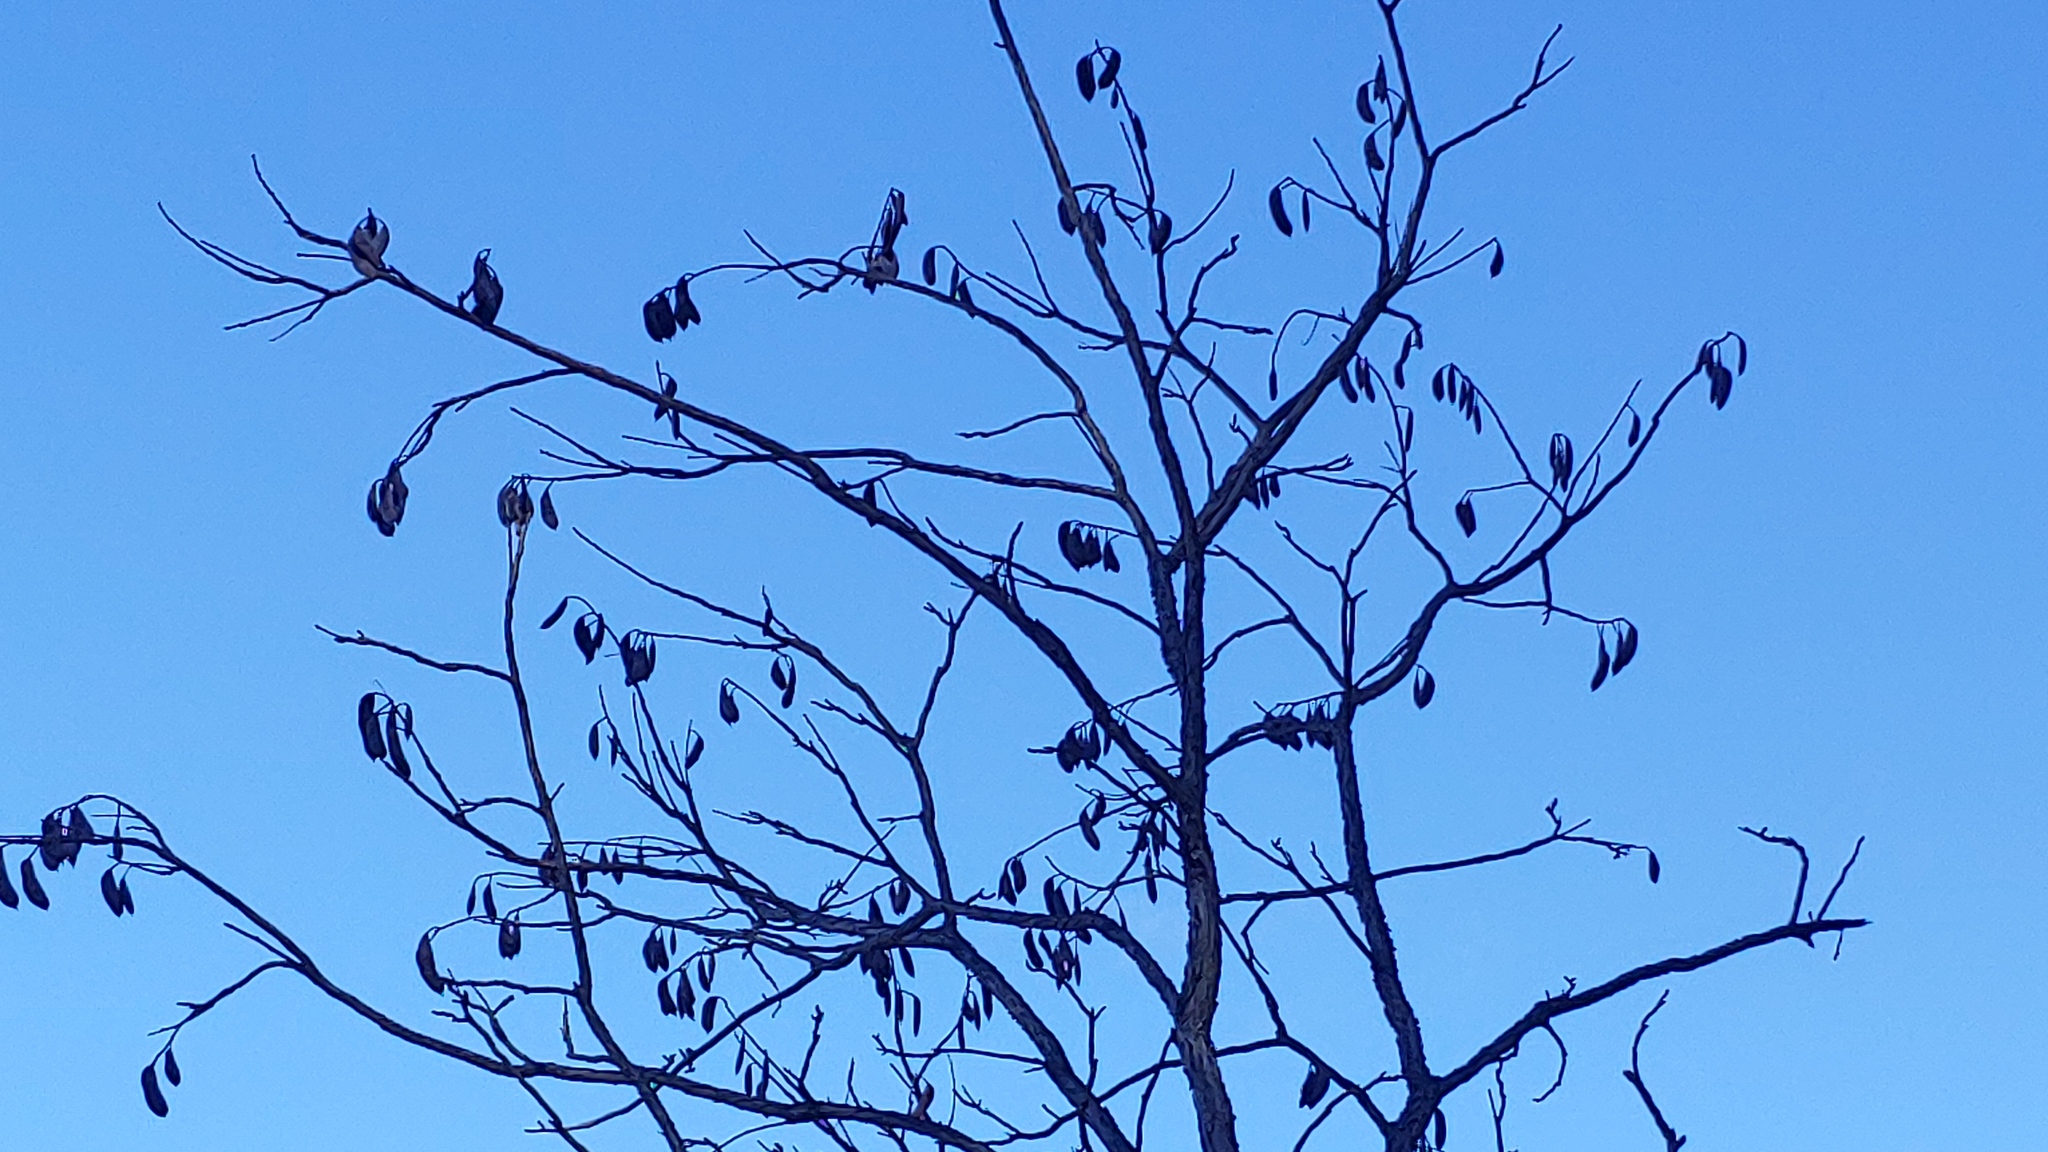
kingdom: Plantae
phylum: Tracheophyta
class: Magnoliopsida
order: Fabales
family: Fabaceae
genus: Gymnocladus
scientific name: Gymnocladus dioicus
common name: Kentucky coffee-tree
